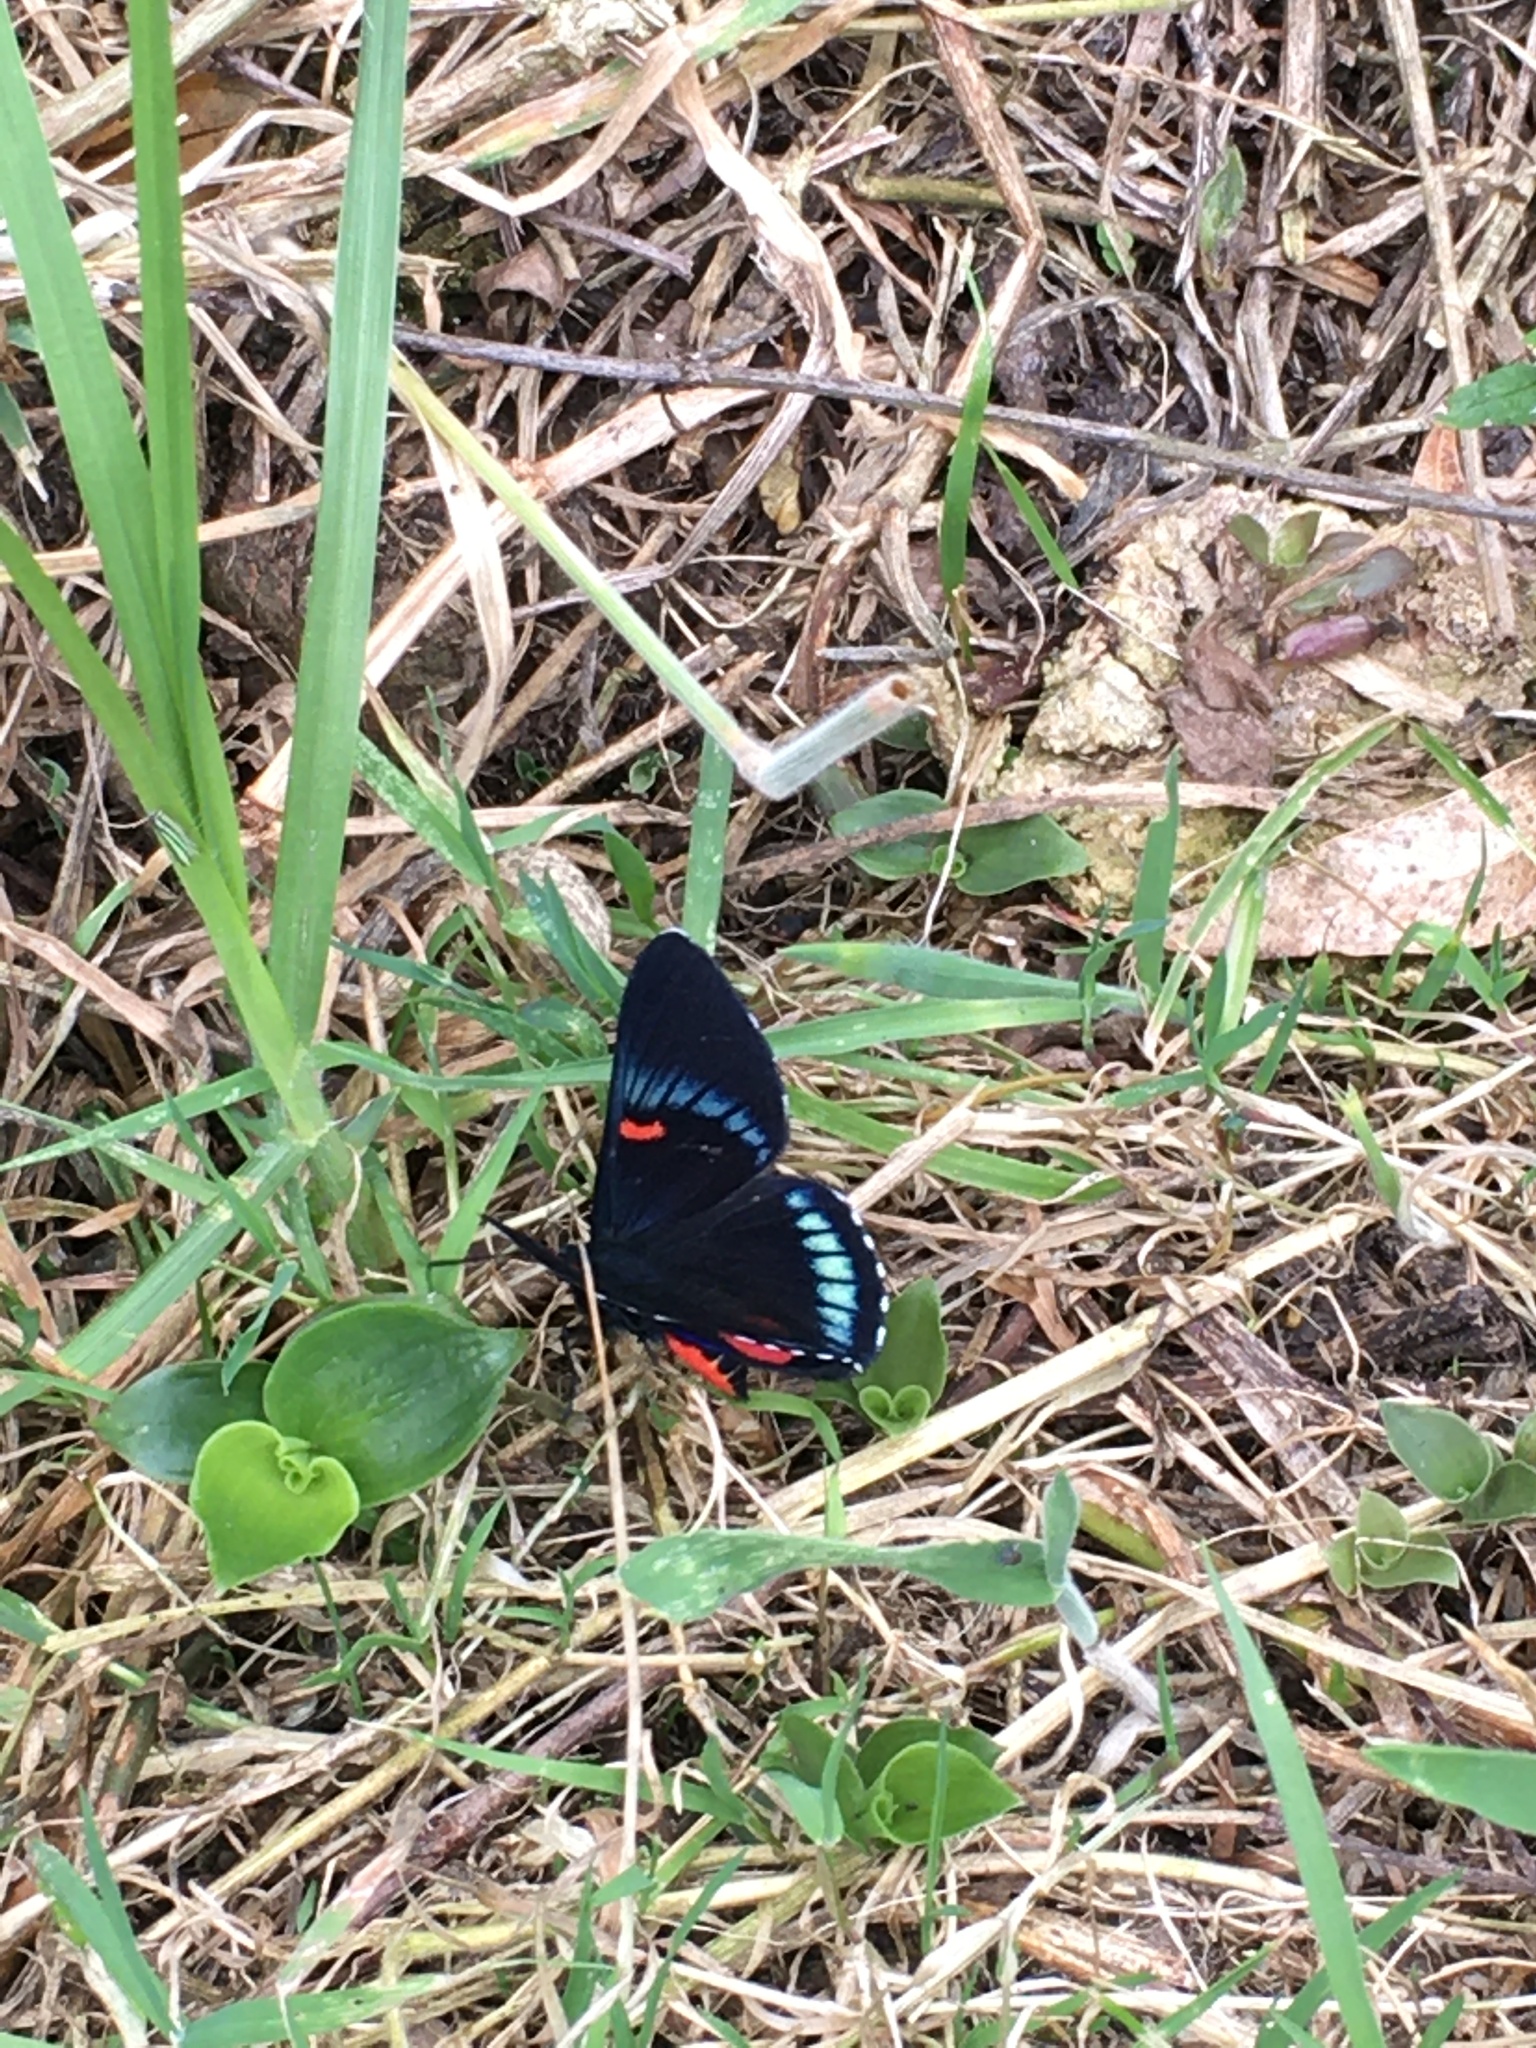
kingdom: Animalia
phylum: Arthropoda
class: Insecta
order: Lepidoptera
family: Lycaenidae
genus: Necyria
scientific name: Necyria bellona
